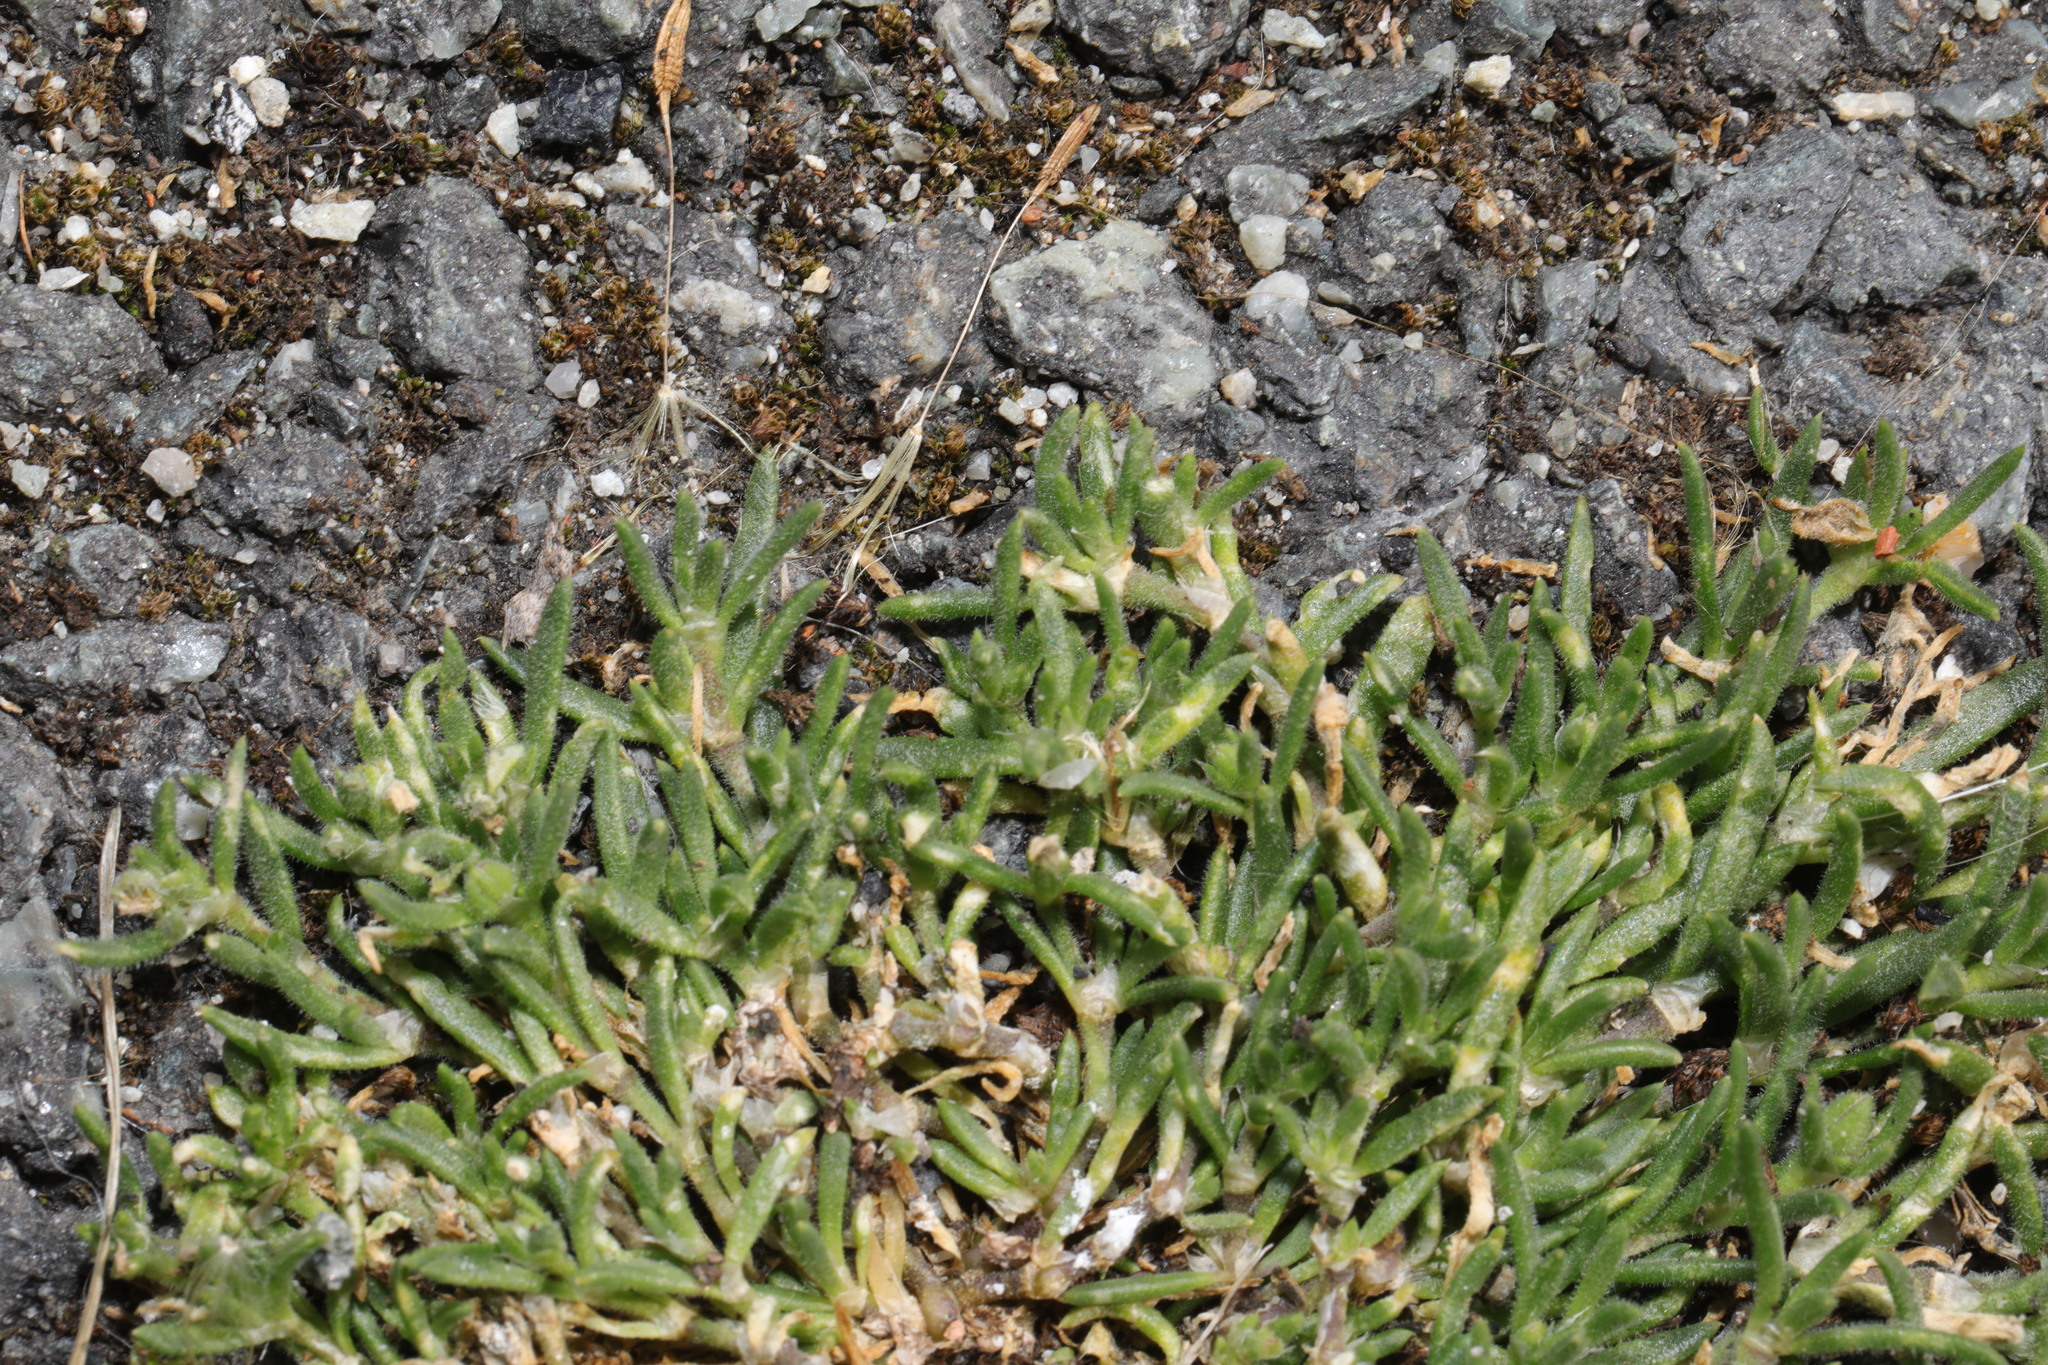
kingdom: Plantae
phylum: Tracheophyta
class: Magnoliopsida
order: Caryophyllales
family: Caryophyllaceae
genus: Spergularia
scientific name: Spergularia rupicola
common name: Cliff sand-spurrey
